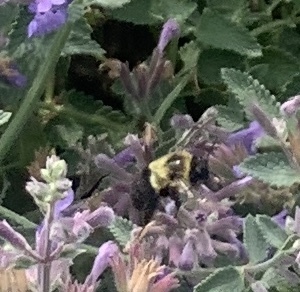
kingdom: Animalia
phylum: Arthropoda
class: Insecta
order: Hymenoptera
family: Apidae
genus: Bombus
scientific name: Bombus impatiens
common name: Common eastern bumble bee
